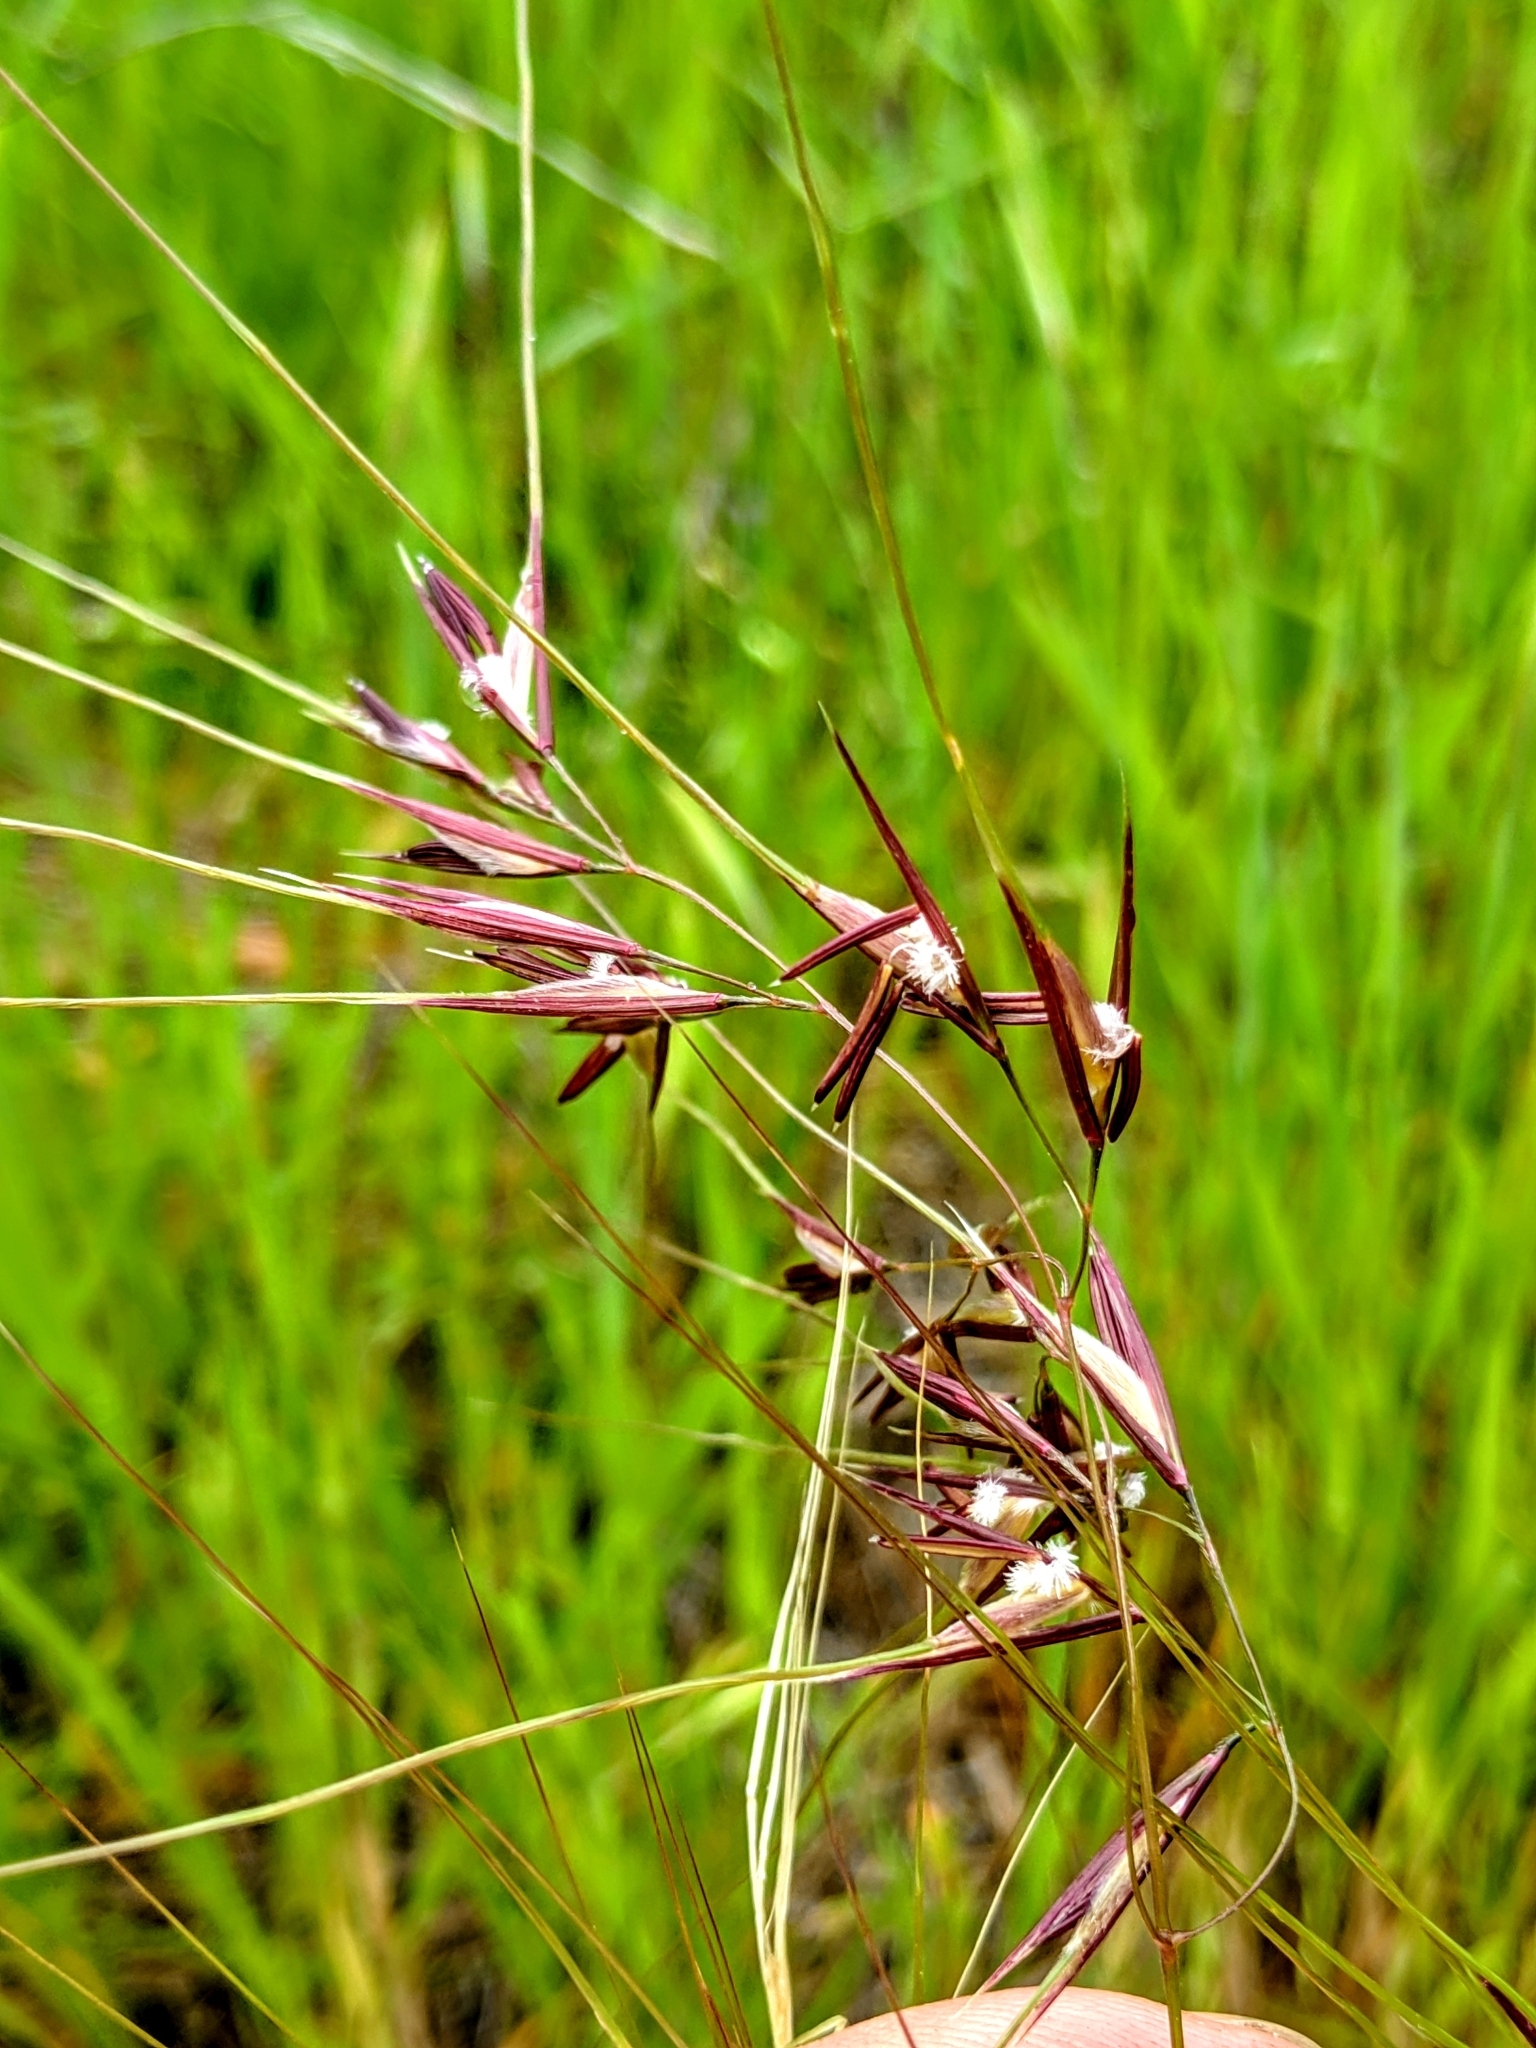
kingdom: Plantae
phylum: Tracheophyta
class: Liliopsida
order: Poales
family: Poaceae
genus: Nassella
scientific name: Nassella pulchra
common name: Purple needlegrass
